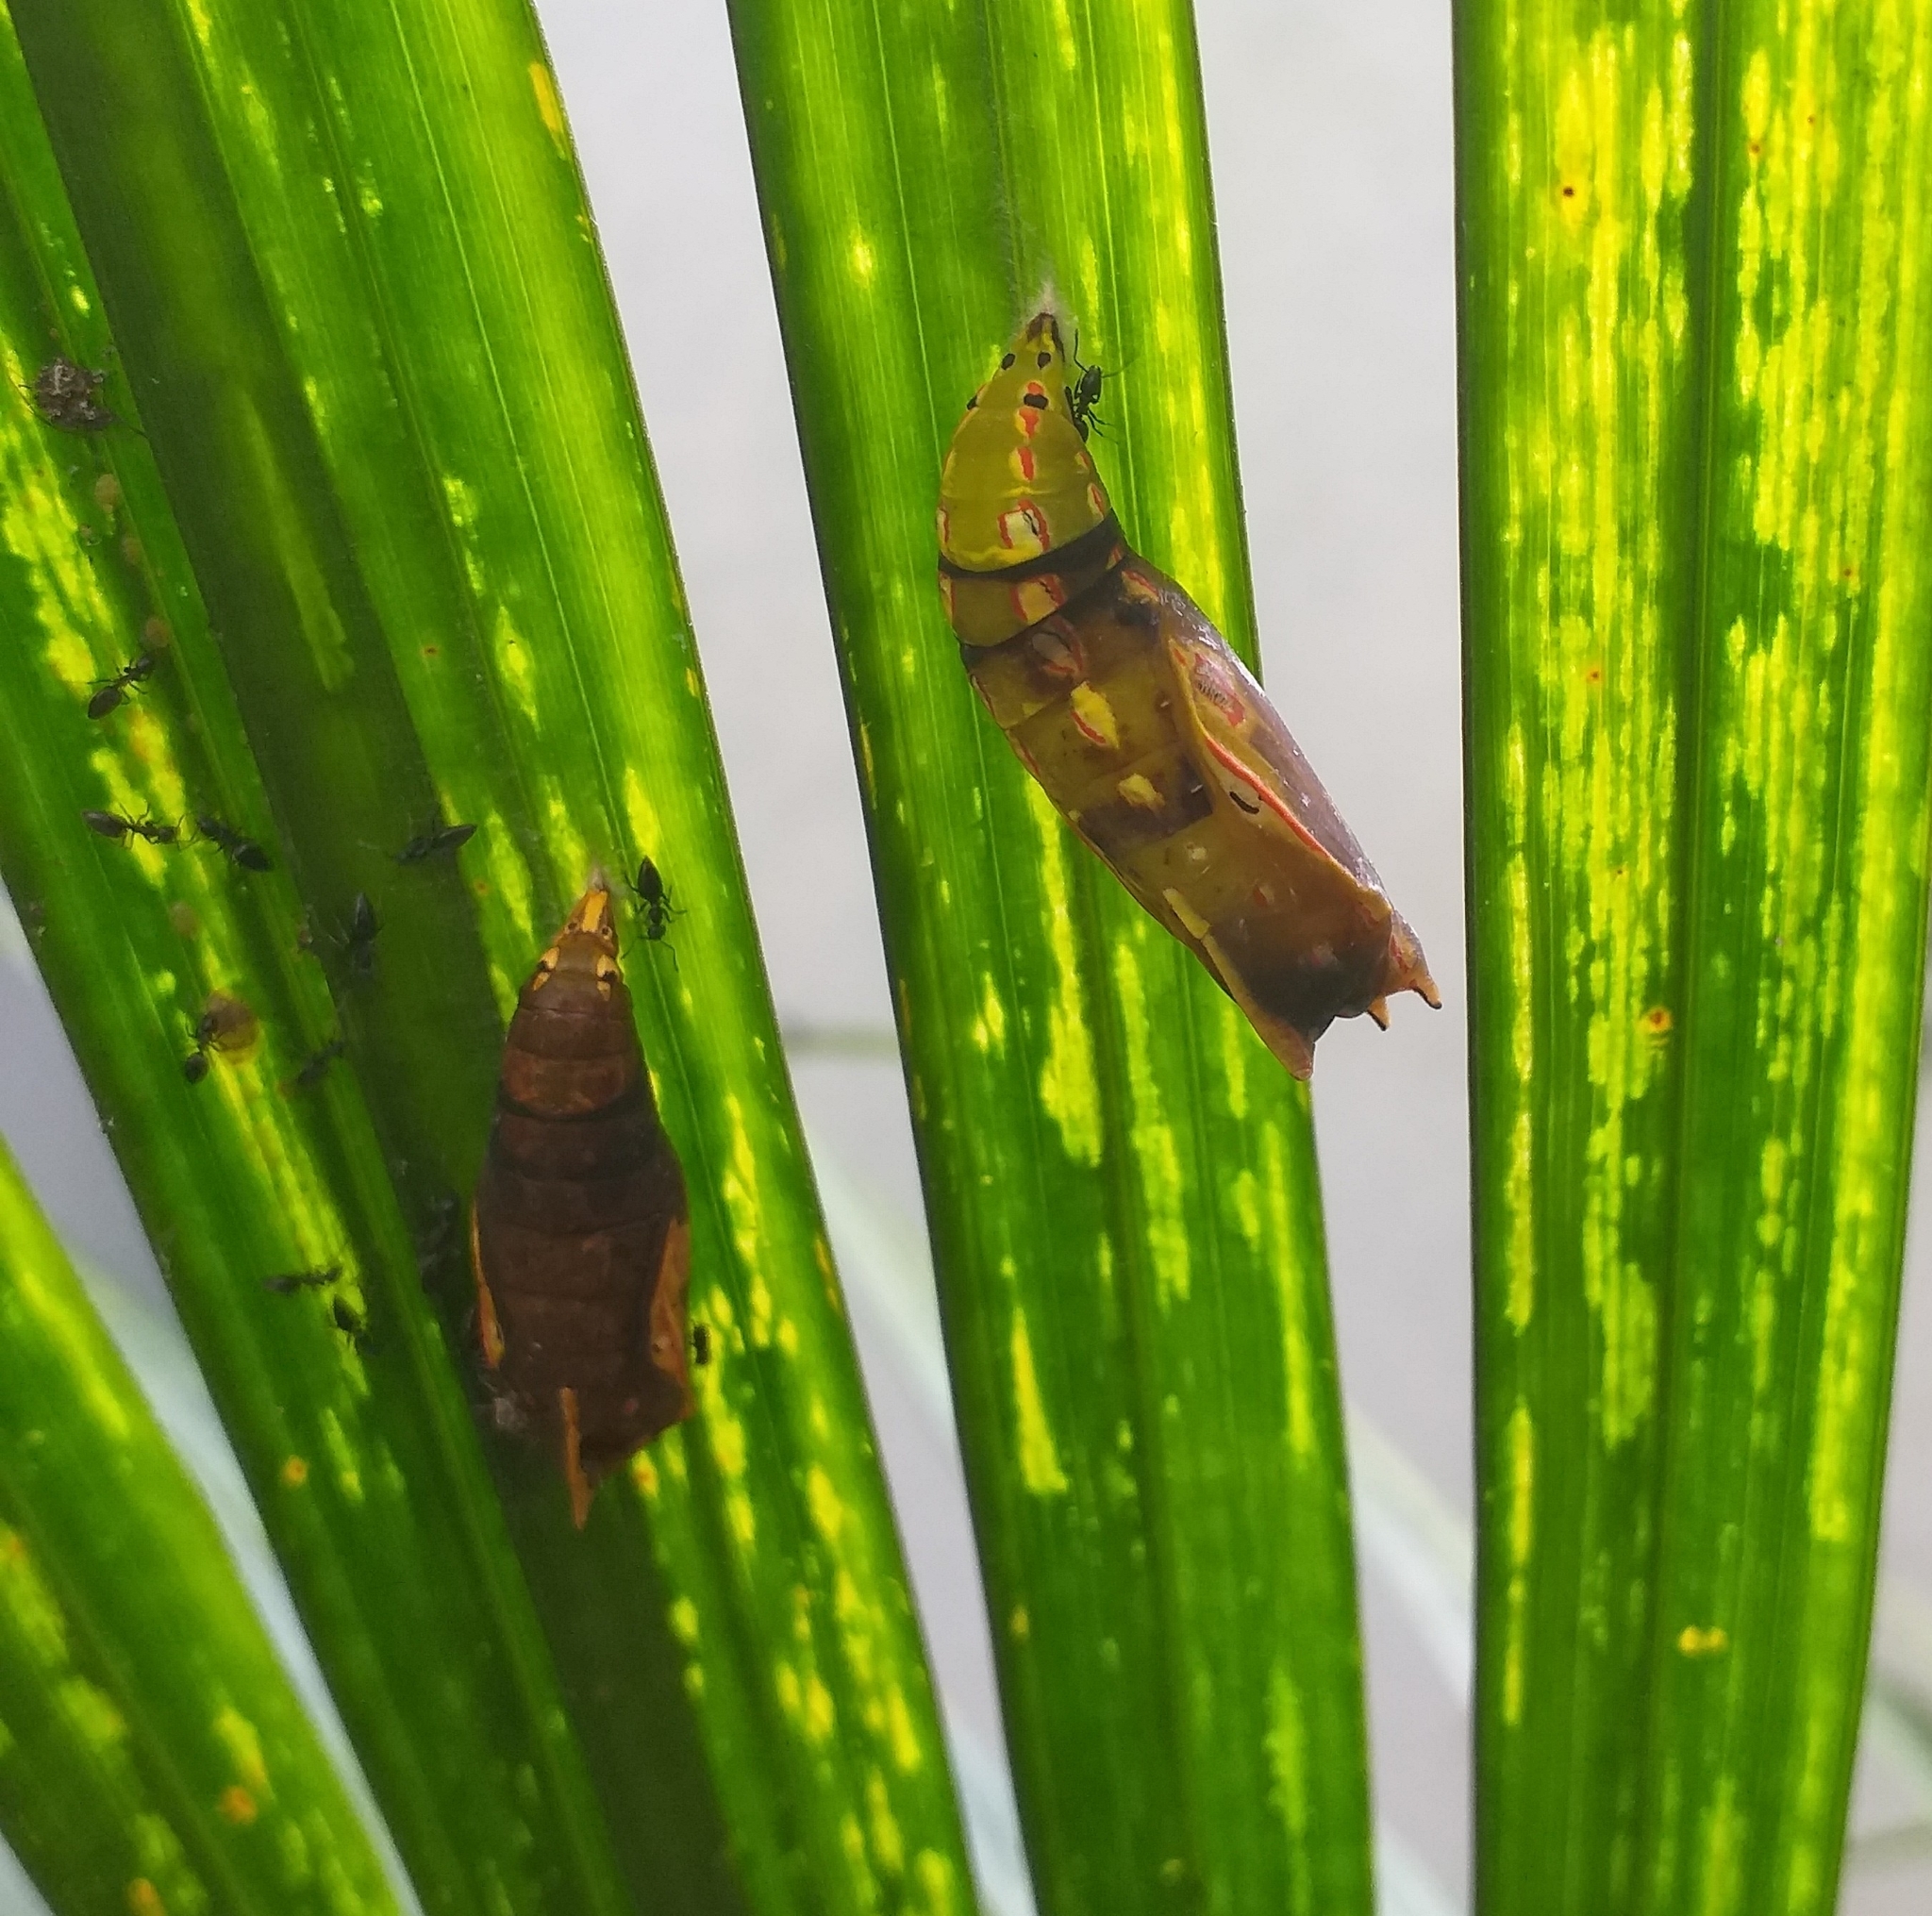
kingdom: Animalia
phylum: Arthropoda
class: Insecta
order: Lepidoptera
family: Nymphalidae
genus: Elymnias
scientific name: Elymnias caudata
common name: Tailed palmfly
